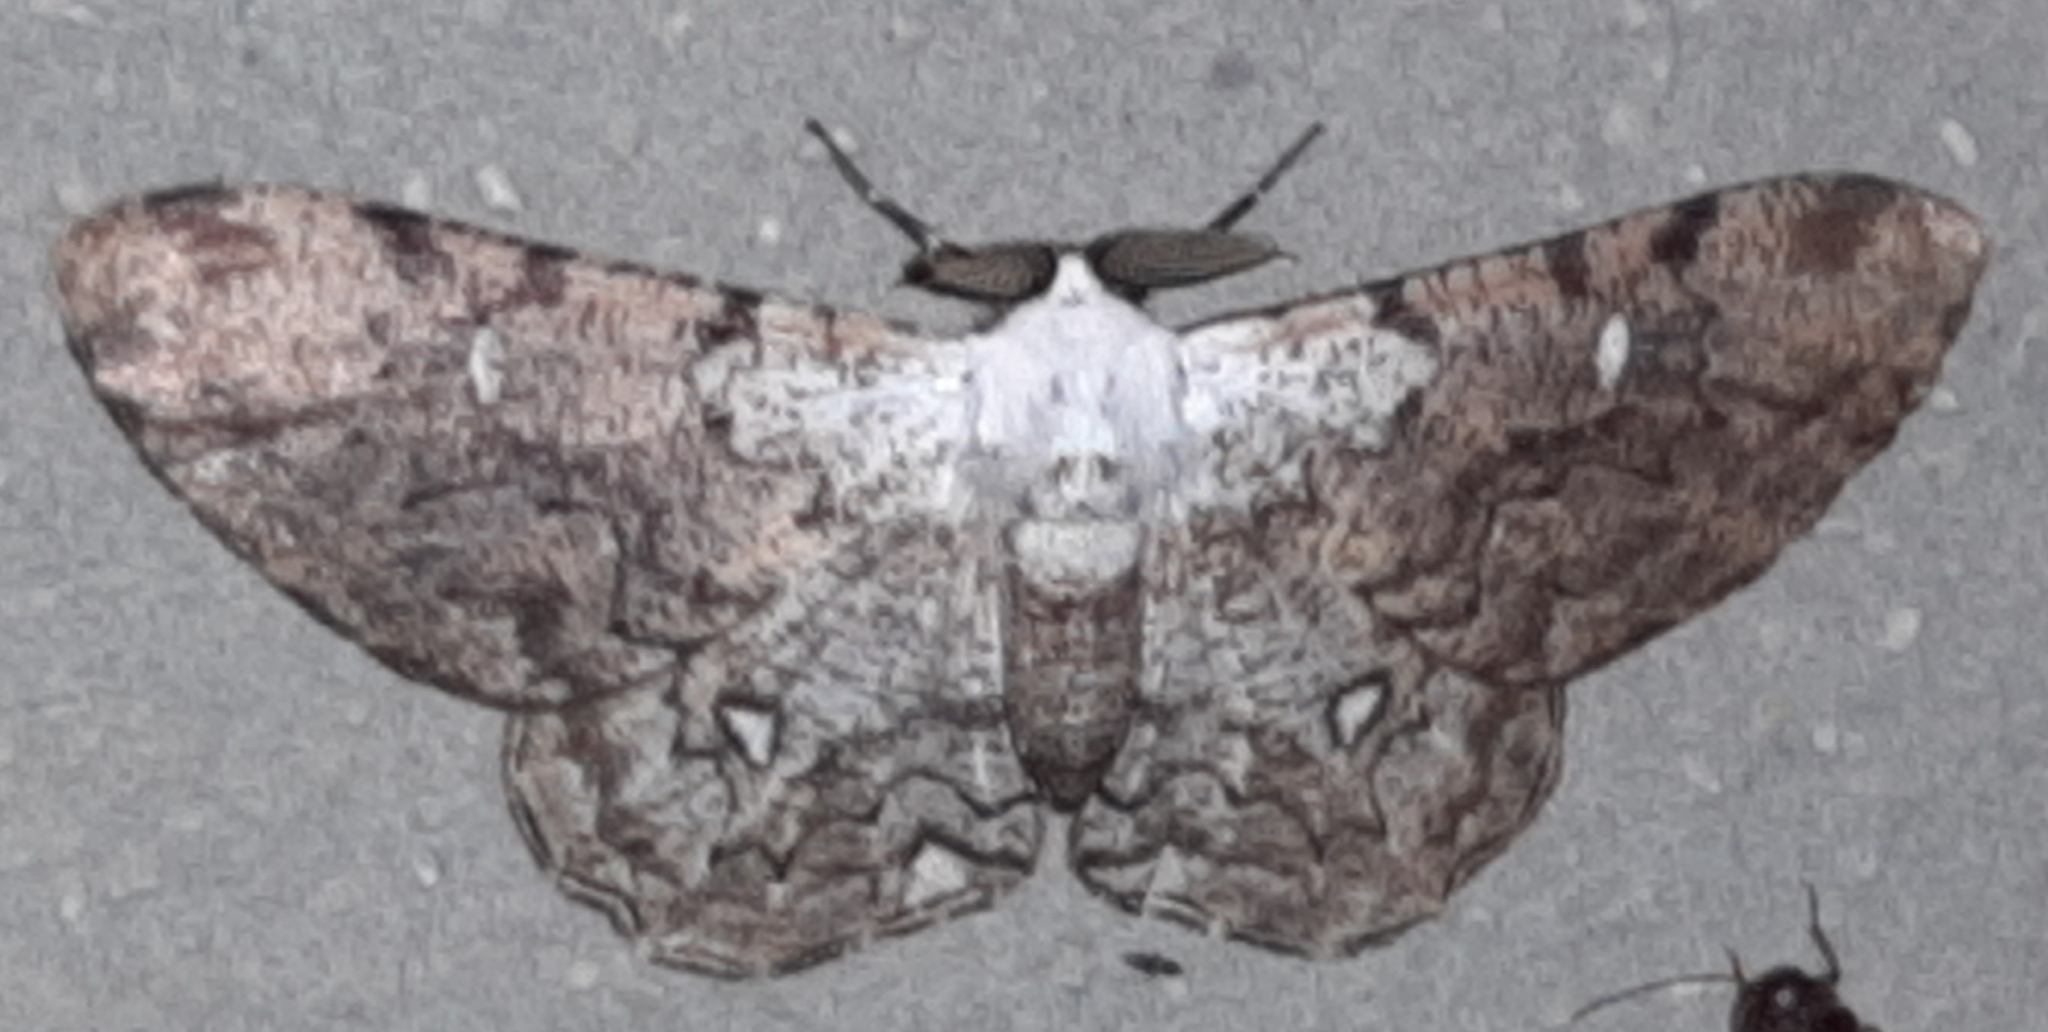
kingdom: Animalia
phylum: Arthropoda
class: Insecta
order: Lepidoptera
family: Geometridae
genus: Thyrinteina
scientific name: Thyrinteina arnobia
